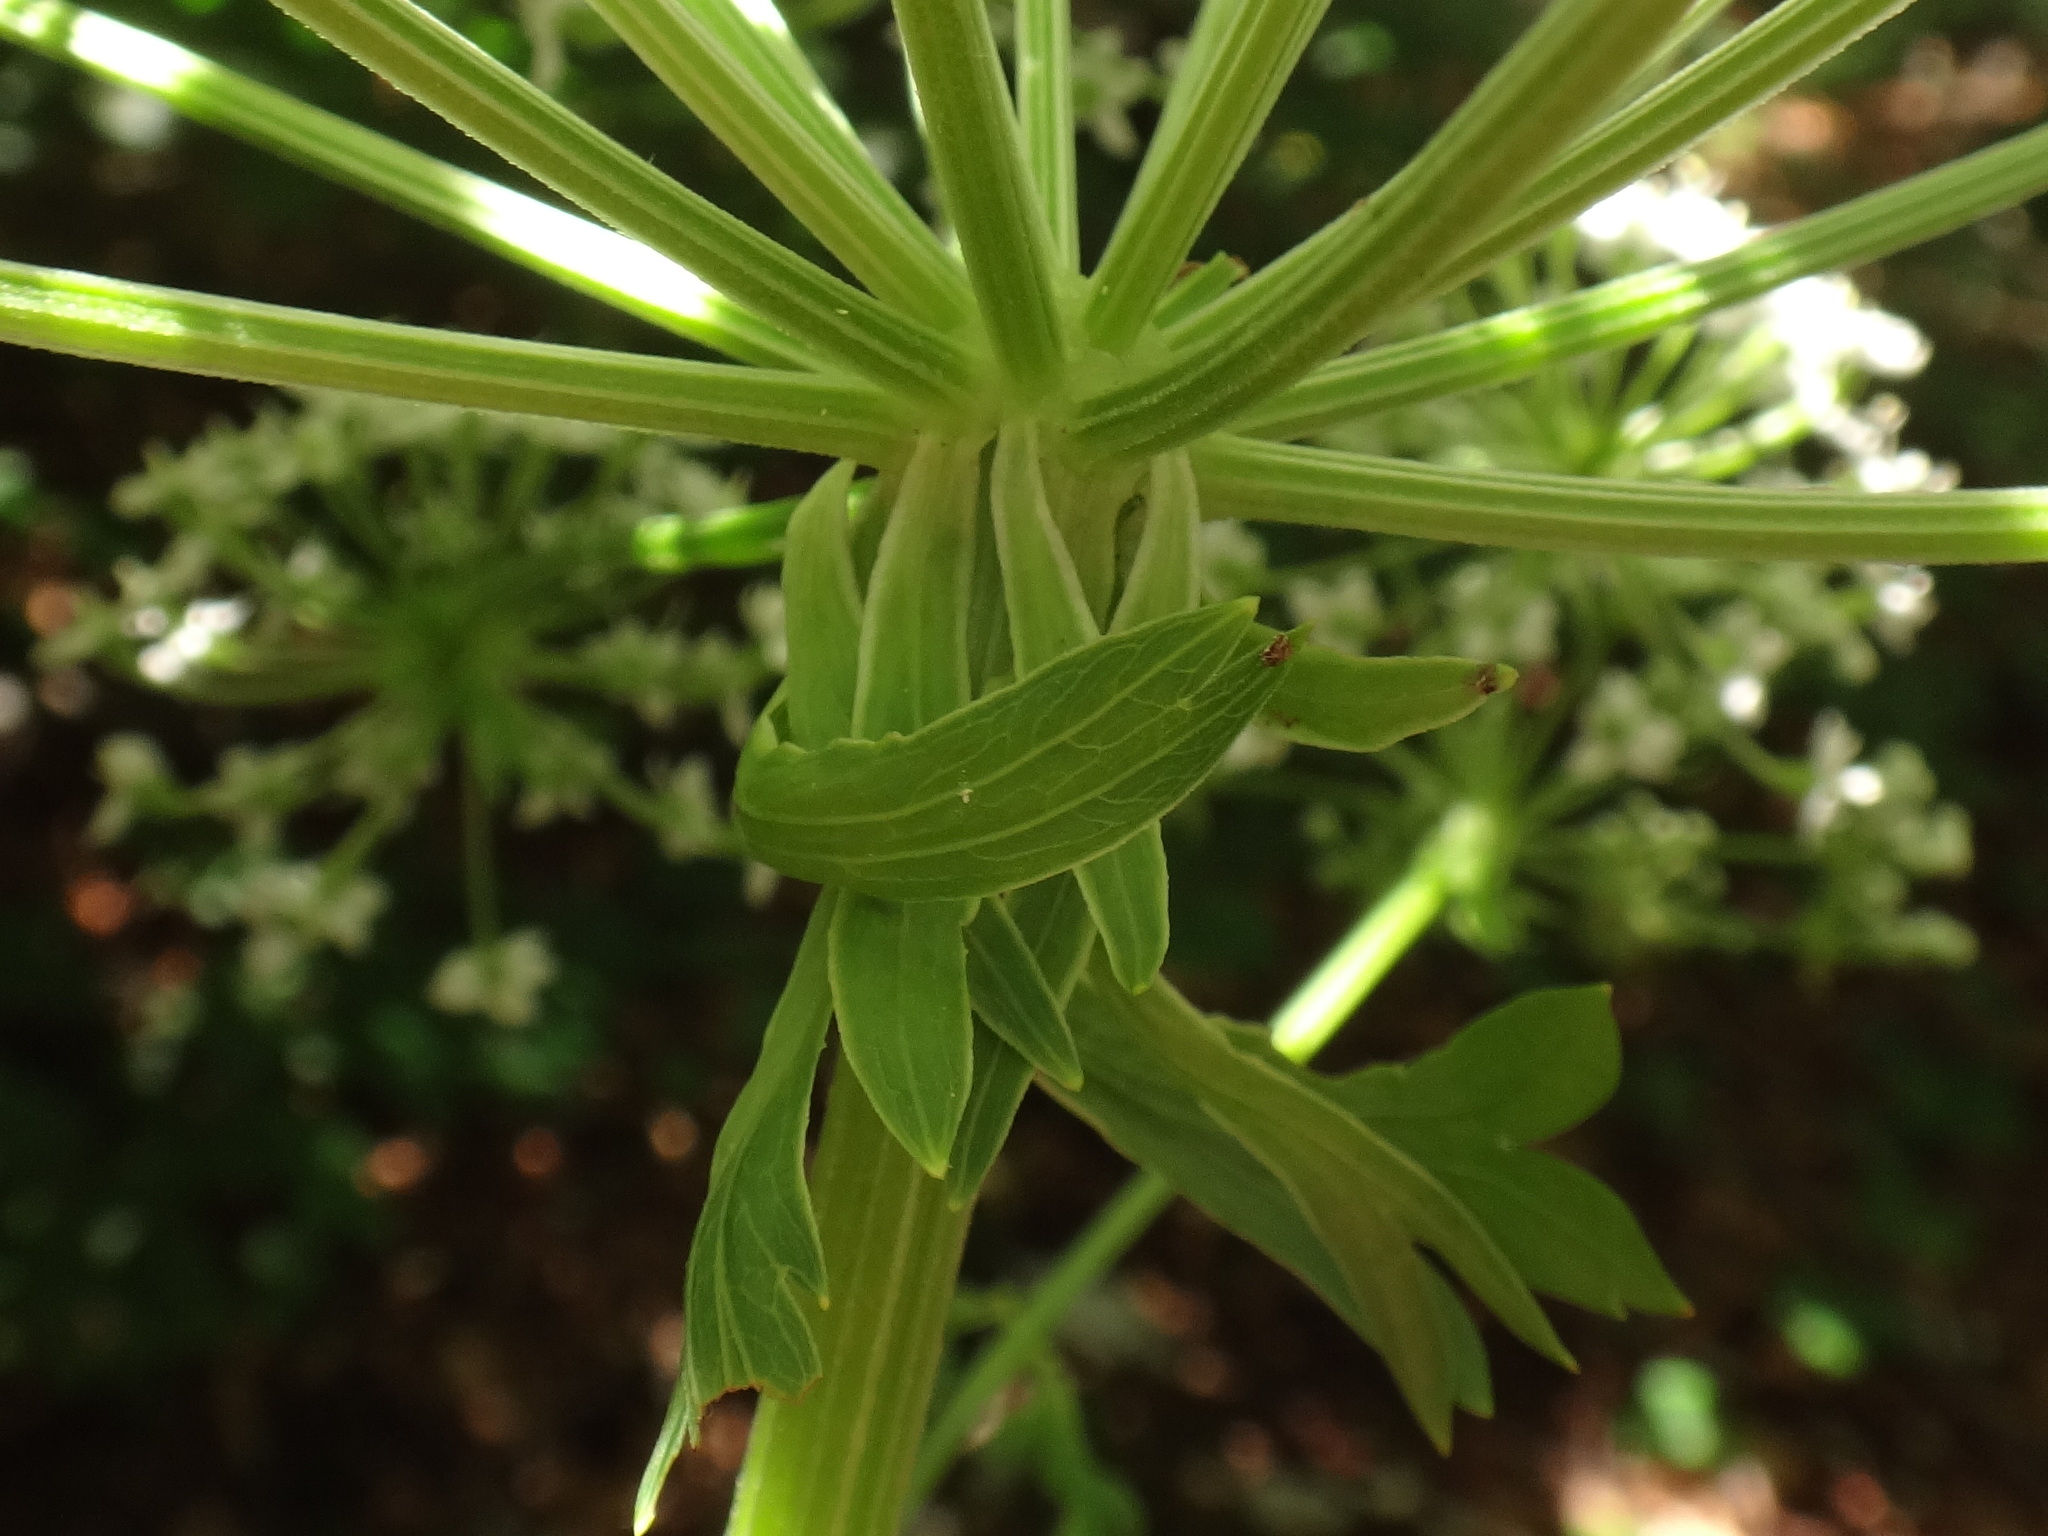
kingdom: Plantae
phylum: Tracheophyta
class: Magnoliopsida
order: Apiales
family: Apiaceae
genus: Pleurospermum
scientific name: Pleurospermum austriacum
